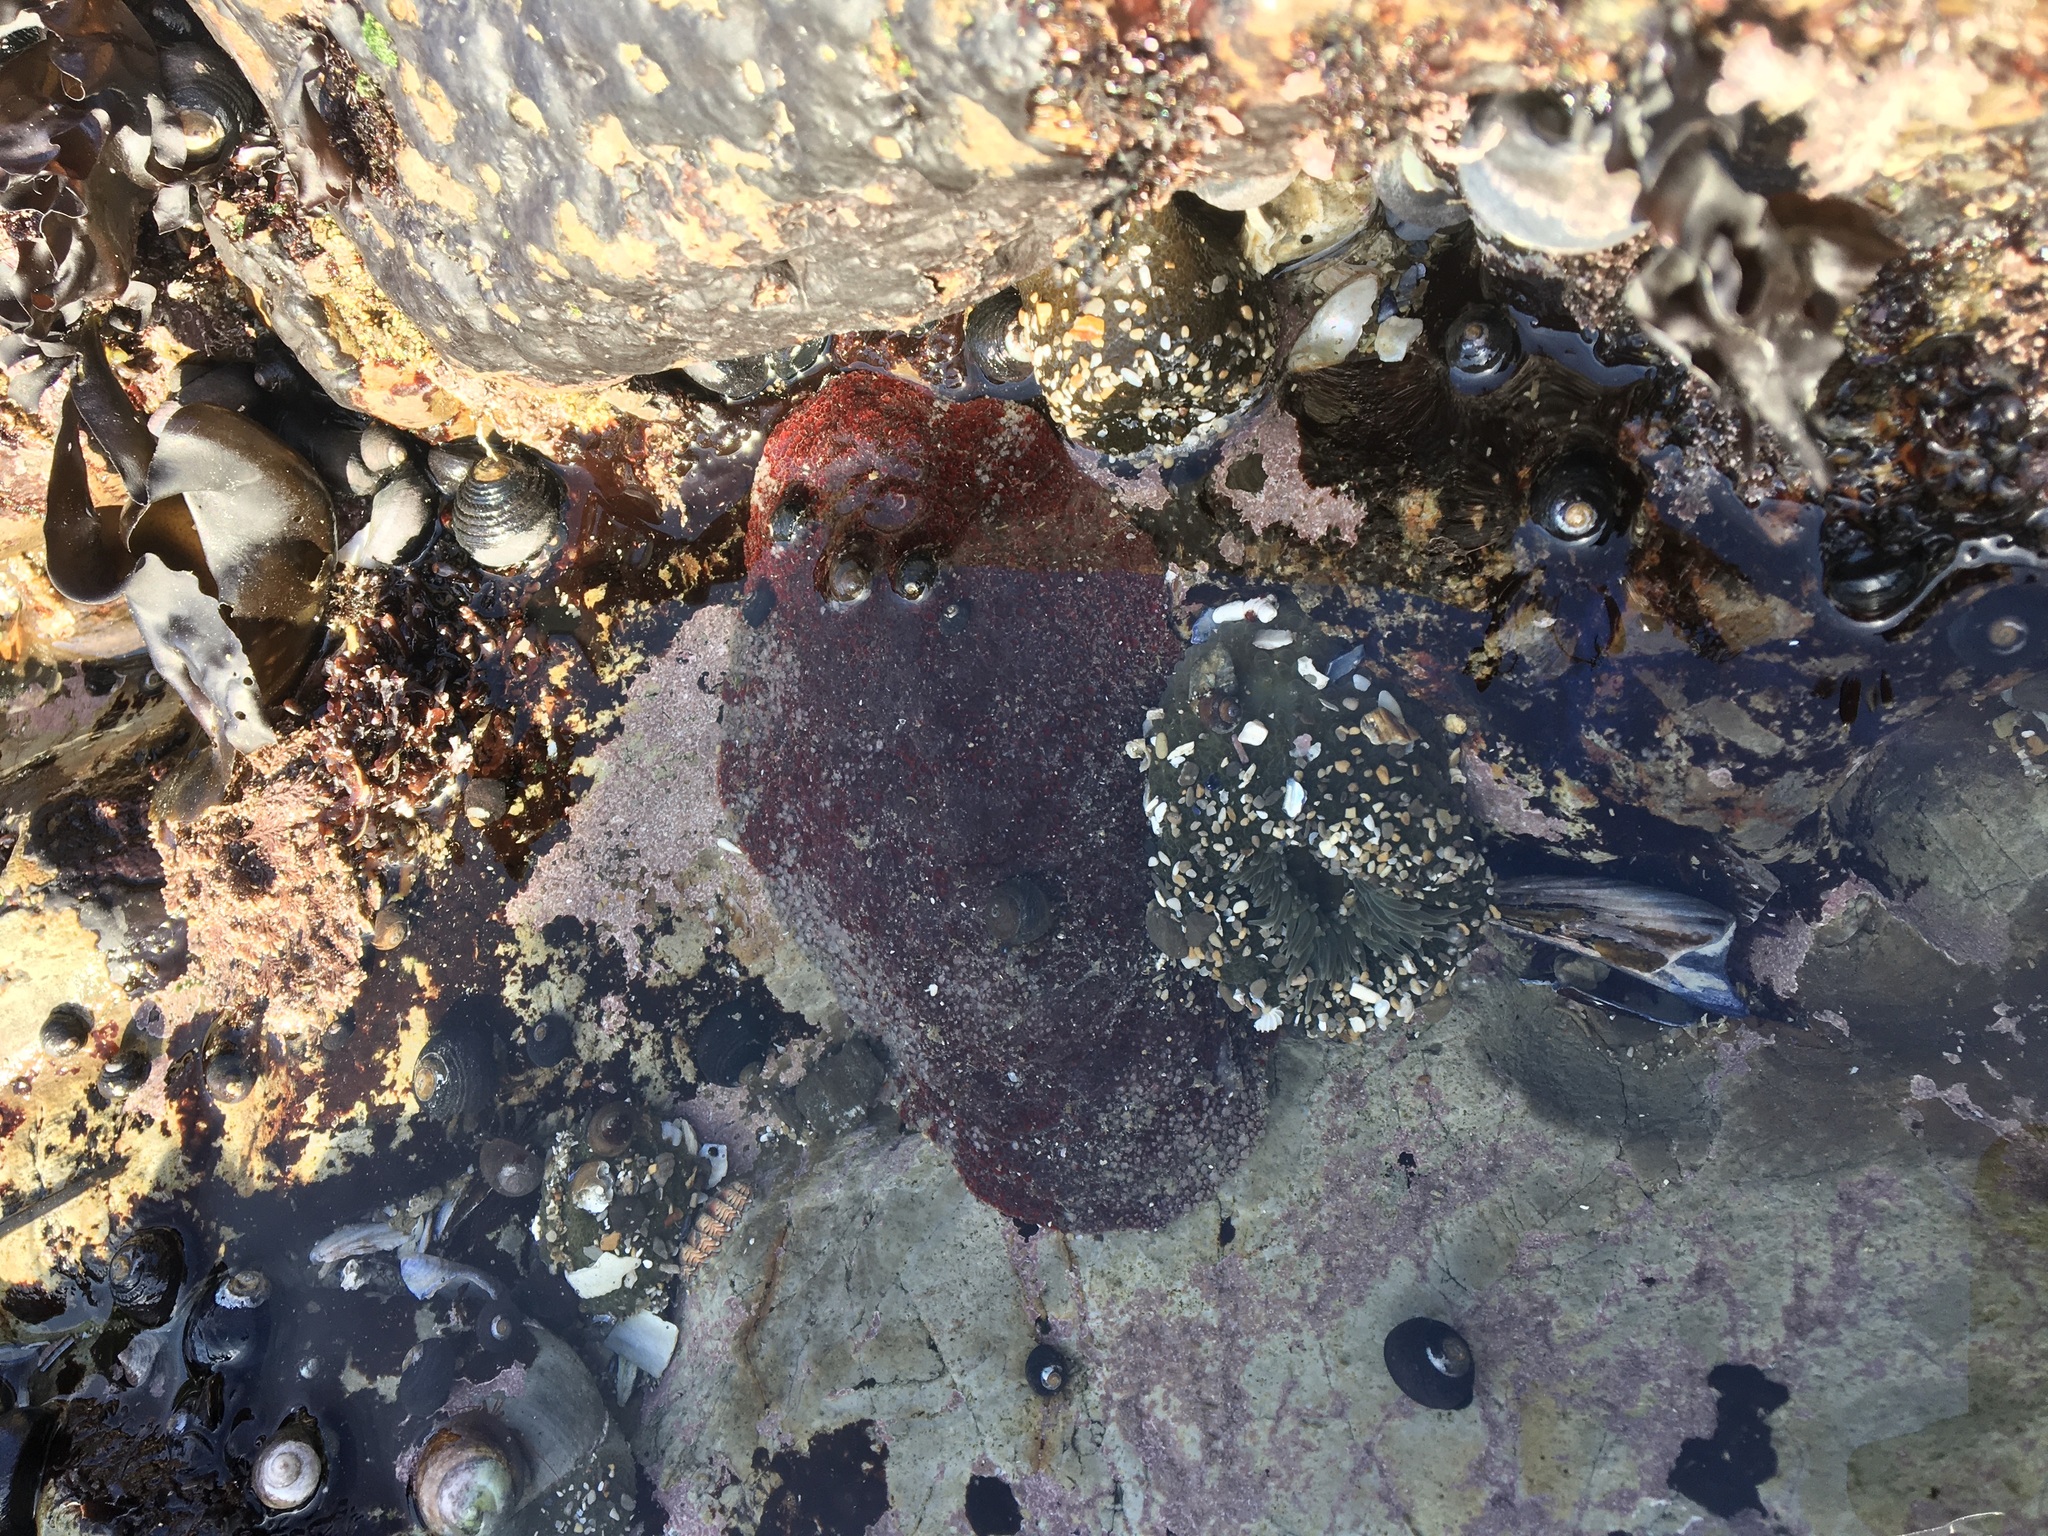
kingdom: Animalia
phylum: Mollusca
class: Polyplacophora
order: Chitonida
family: Acanthochitonidae
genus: Cryptochiton
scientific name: Cryptochiton stelleri
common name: Giant pacific chiton
